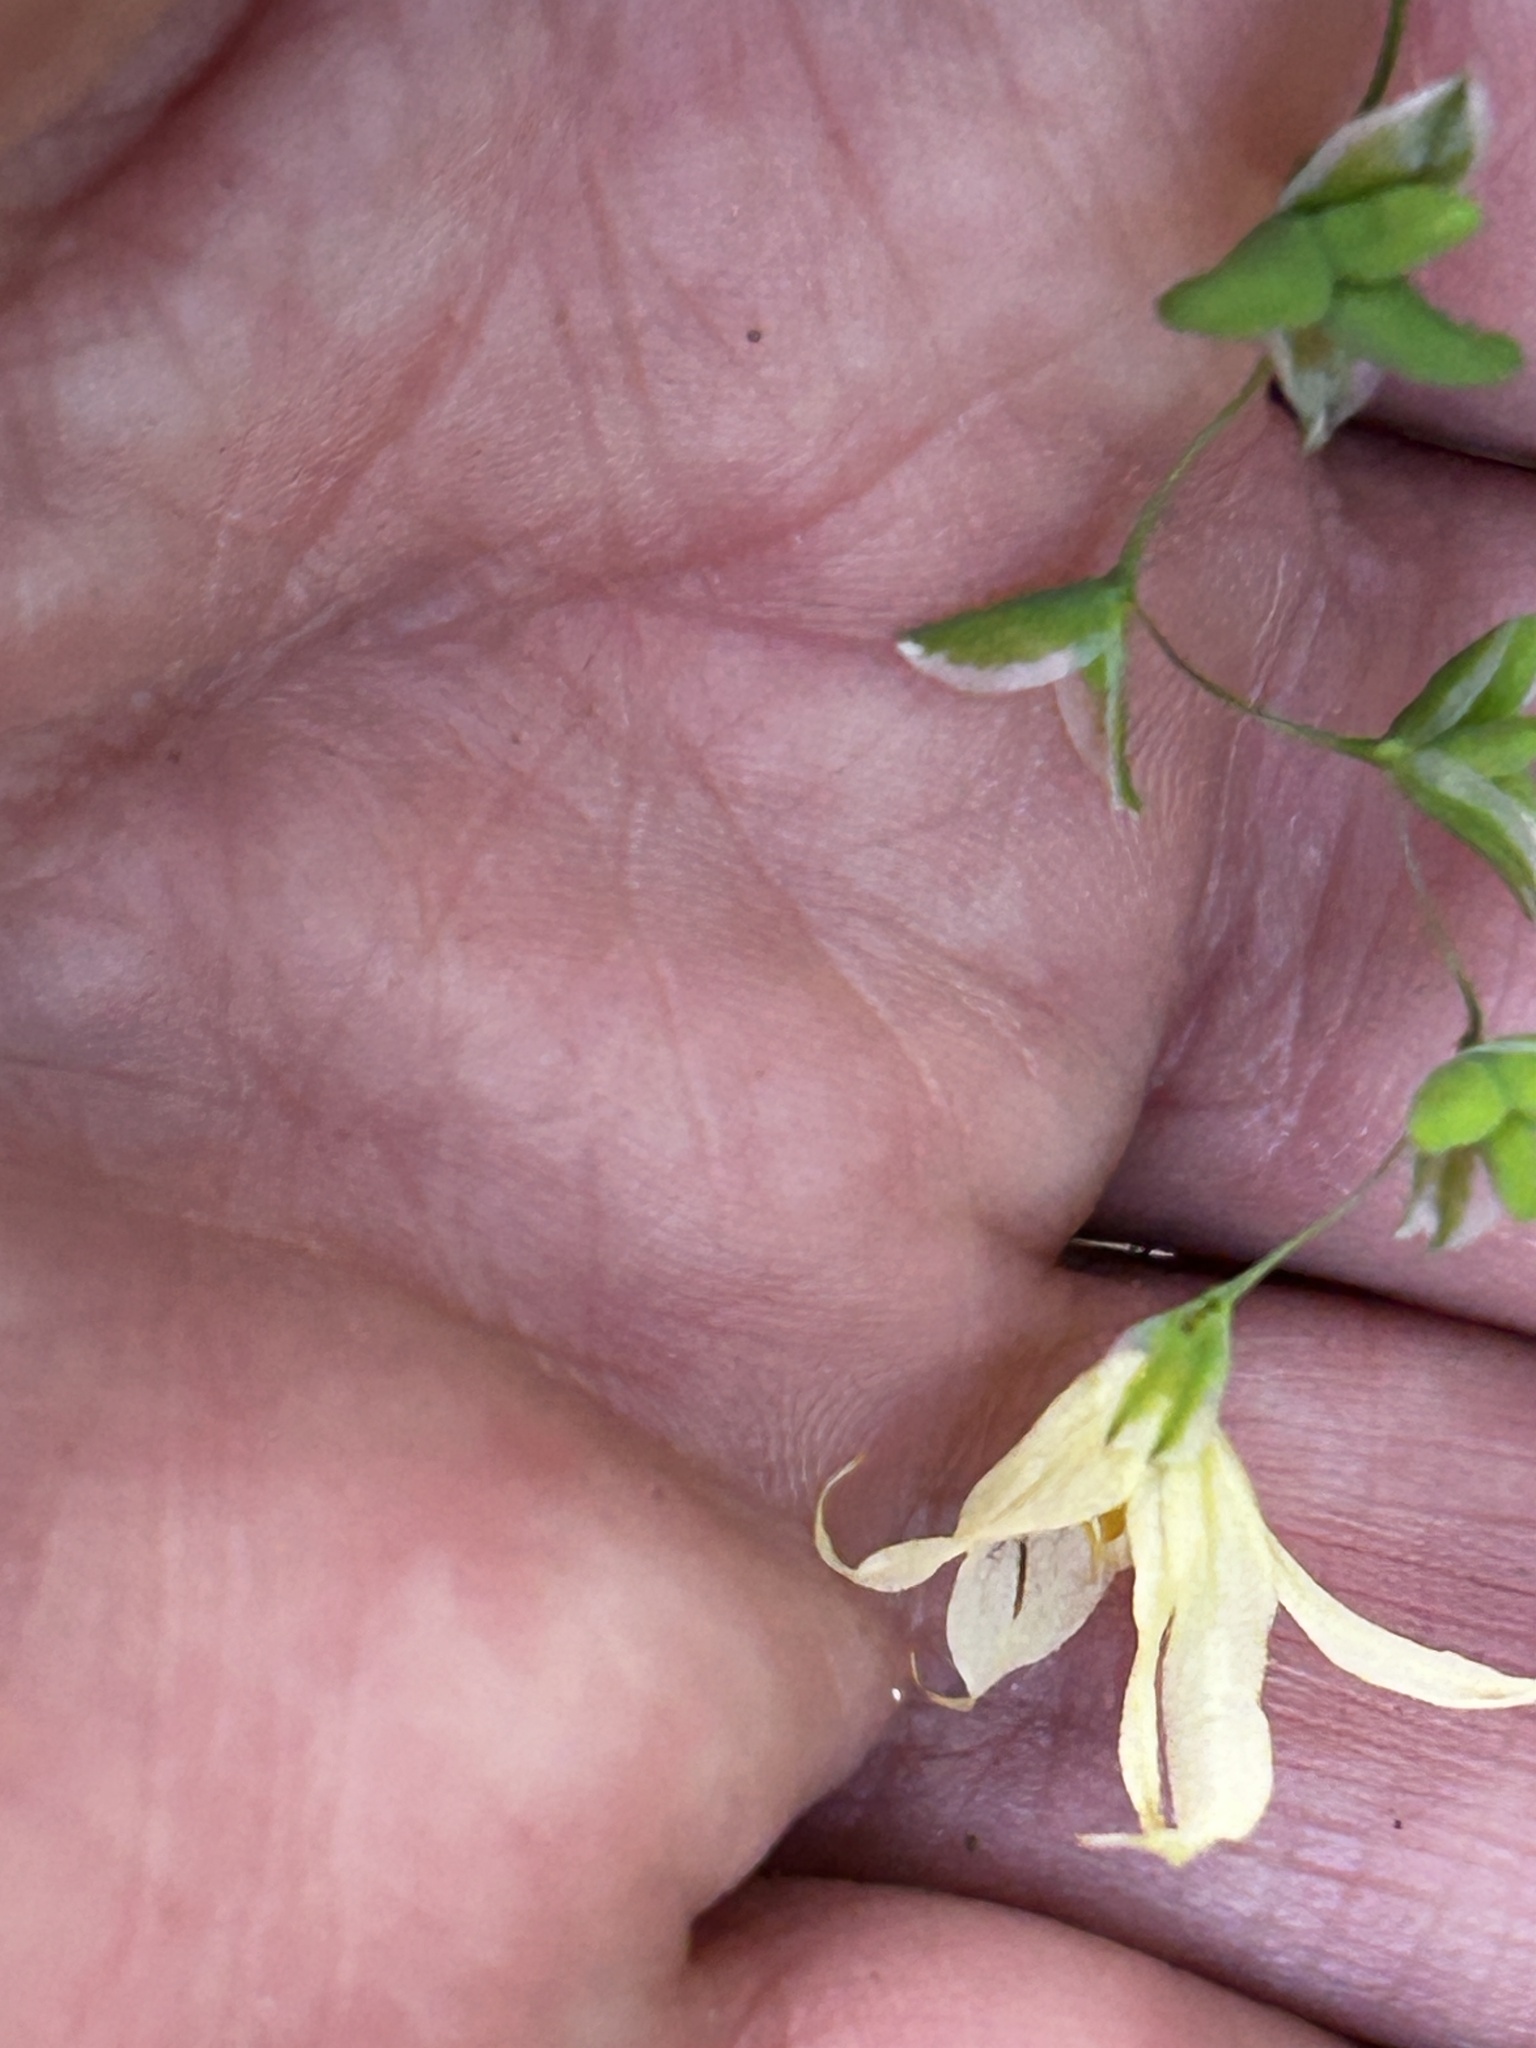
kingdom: Plantae
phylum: Tracheophyta
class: Liliopsida
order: Asparagales
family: Iridaceae
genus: Melasphaerula
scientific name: Melasphaerula graminea
